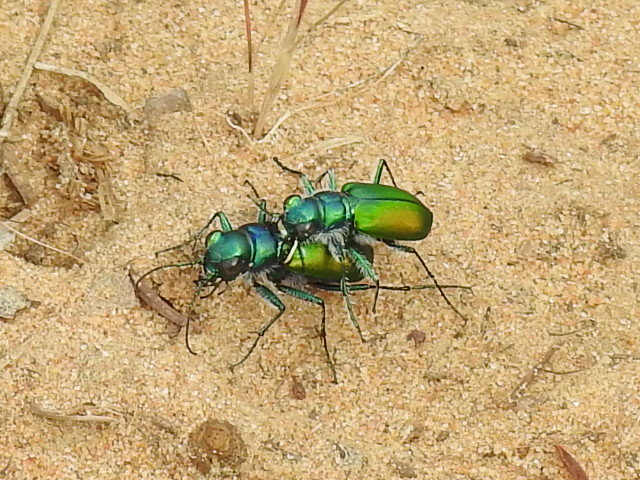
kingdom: Animalia
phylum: Arthropoda
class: Insecta
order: Coleoptera
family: Carabidae
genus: Cicindela
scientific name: Cicindela scutellaris
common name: Festive tiger beetle
